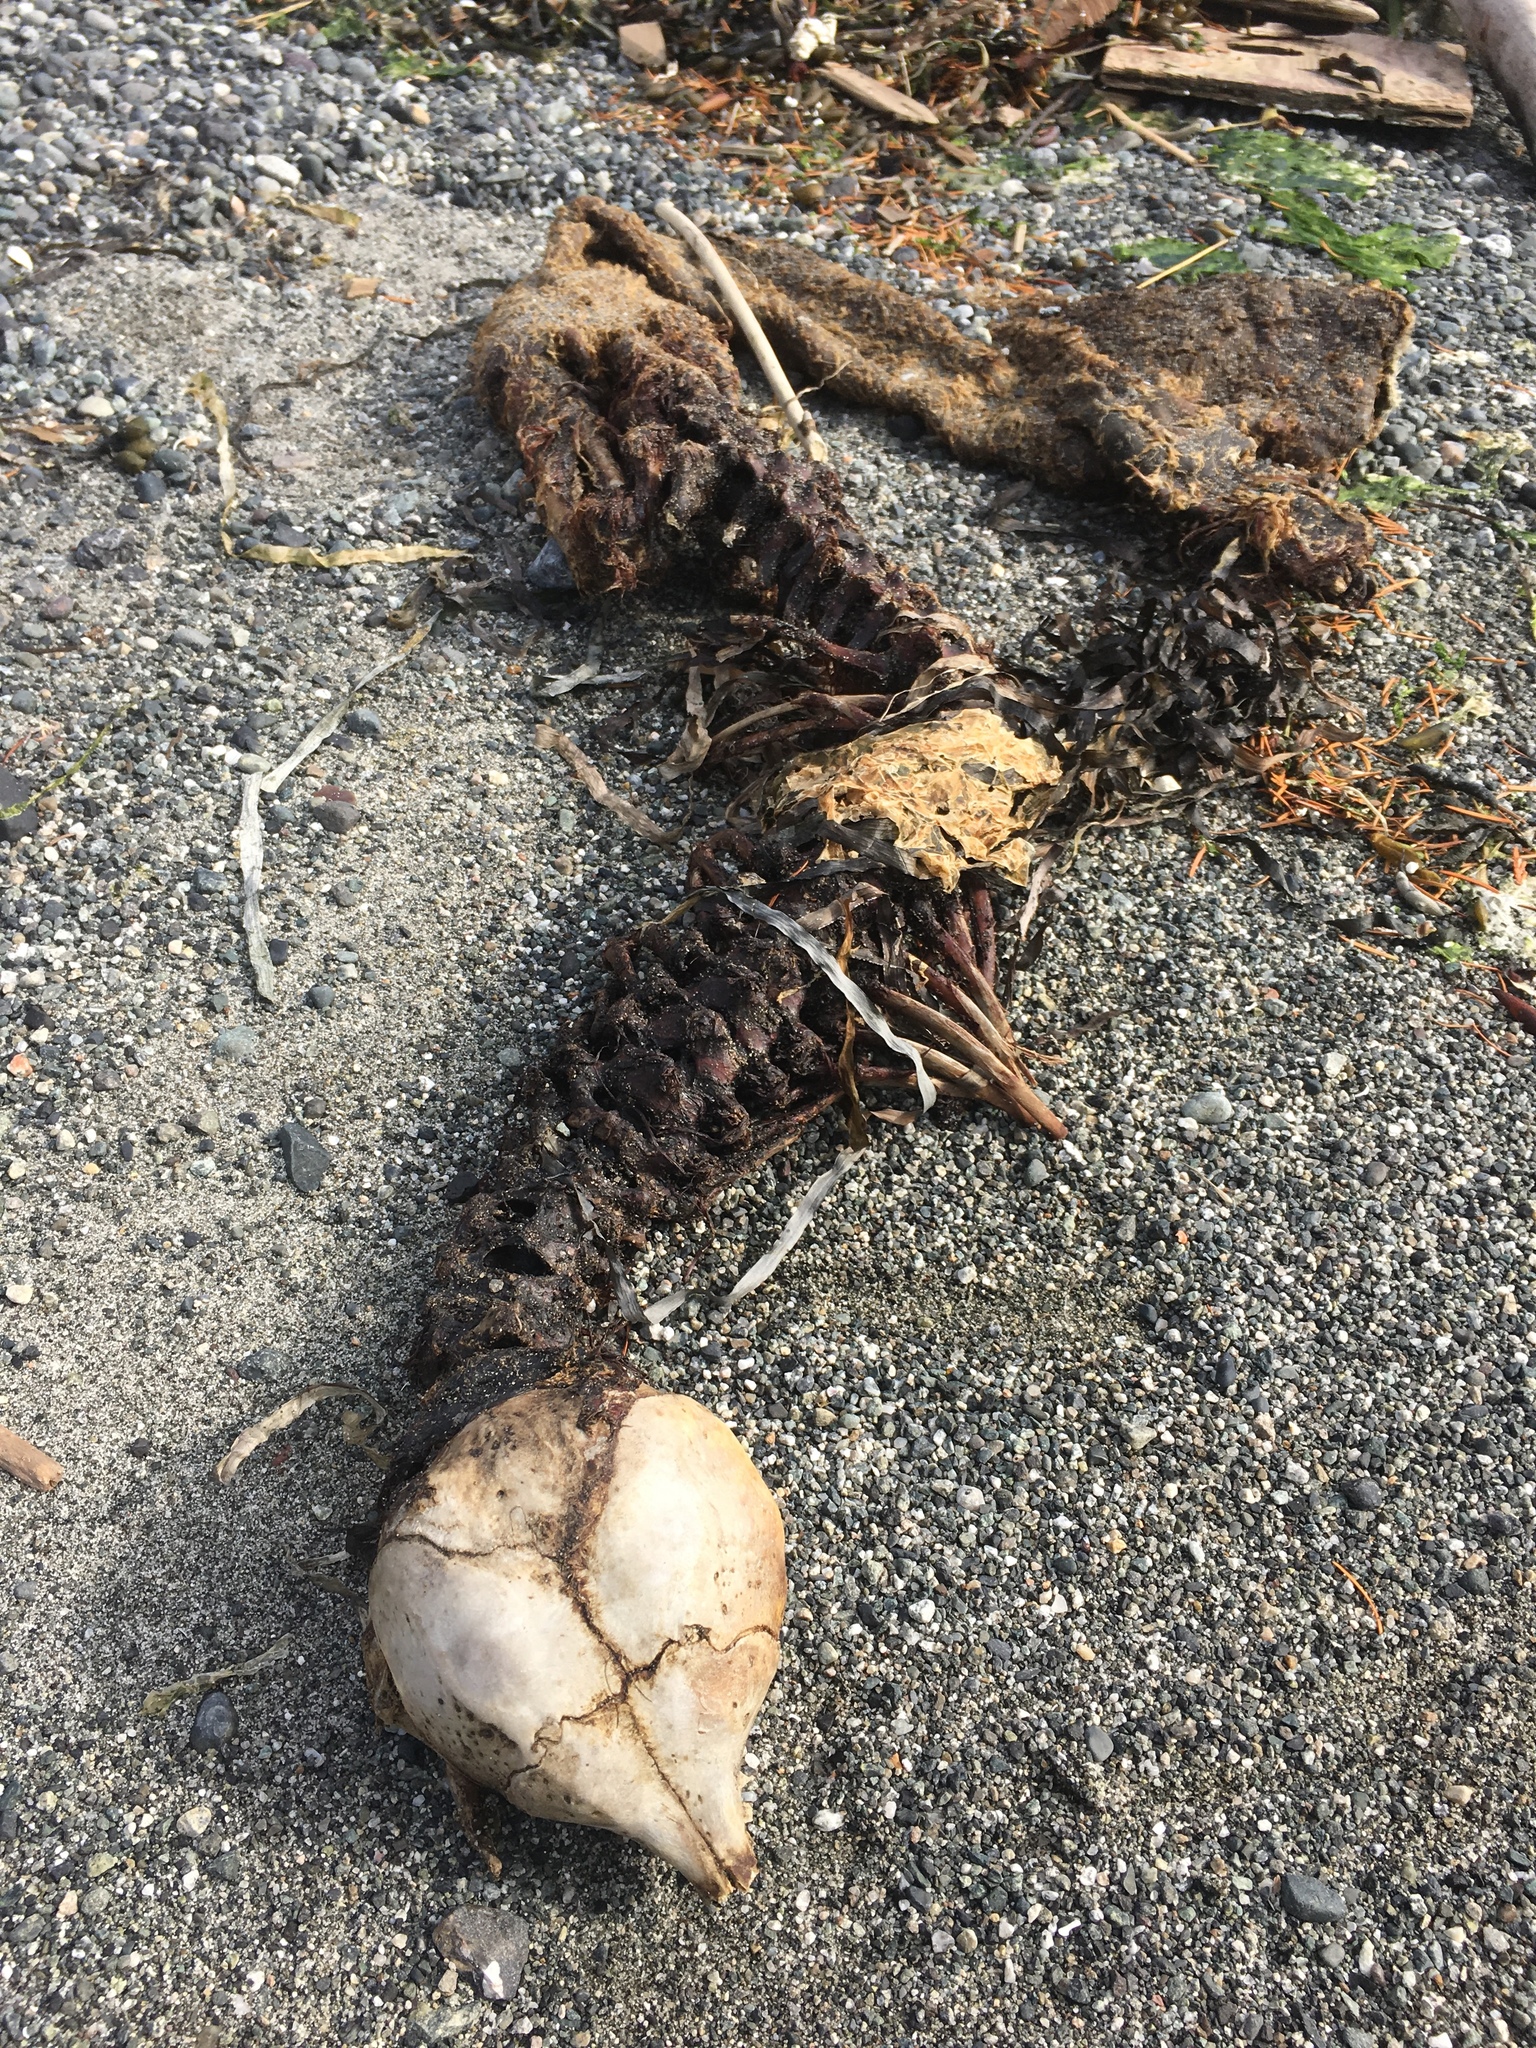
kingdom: Animalia
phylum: Chordata
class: Mammalia
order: Carnivora
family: Phocidae
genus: Phoca
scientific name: Phoca vitulina
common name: Harbor seal
